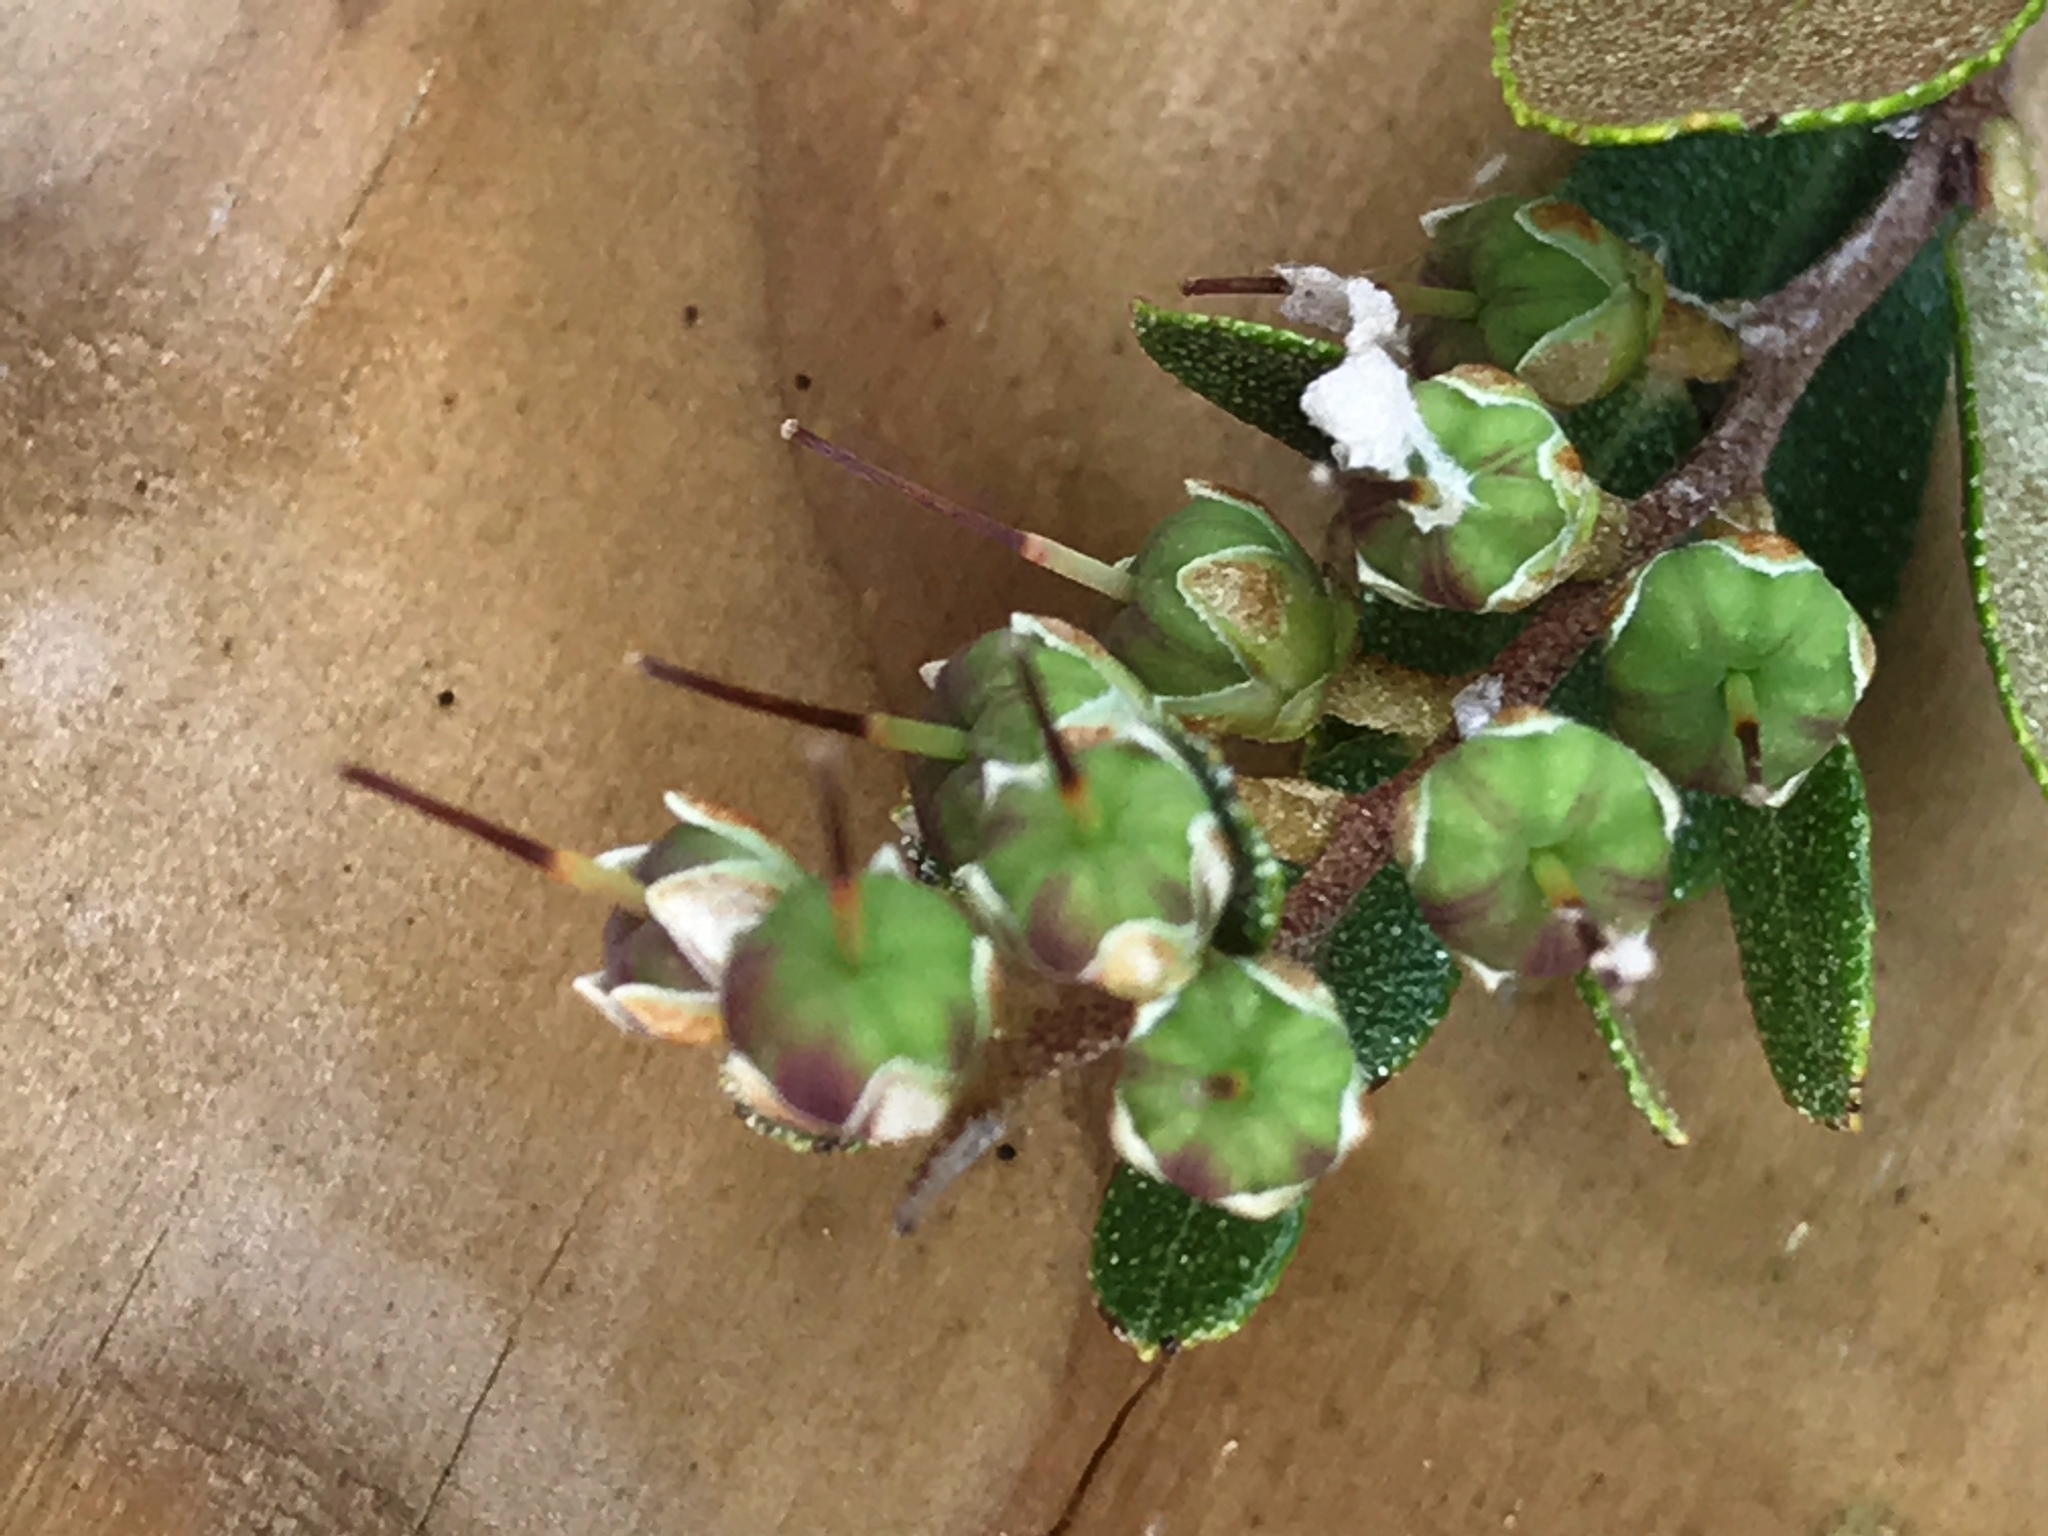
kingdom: Plantae
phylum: Tracheophyta
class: Magnoliopsida
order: Ericales
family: Ericaceae
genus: Chamaedaphne
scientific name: Chamaedaphne calyculata
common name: Leatherleaf
